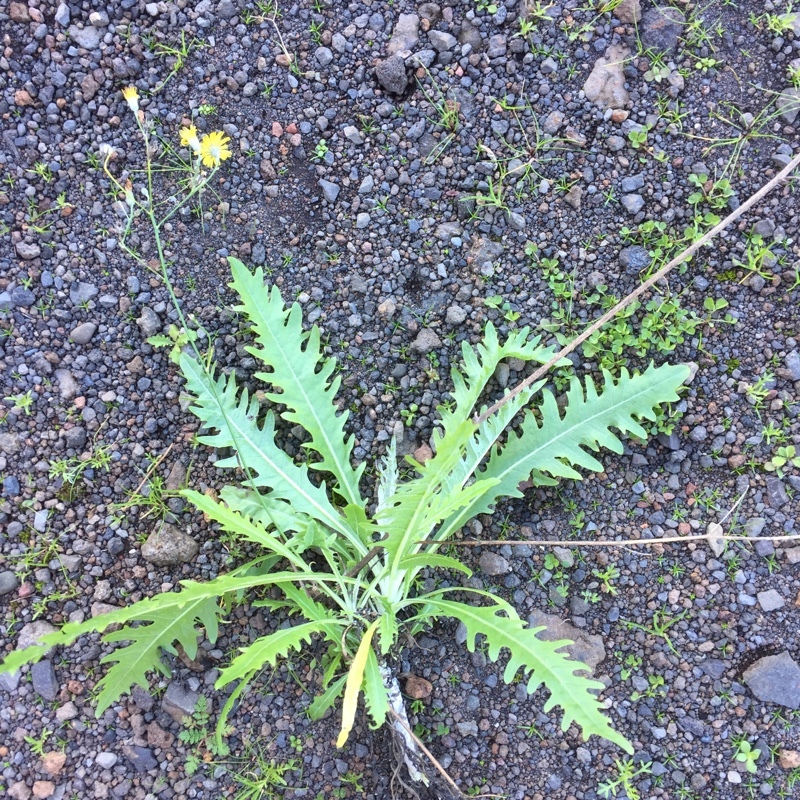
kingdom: Plantae
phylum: Tracheophyta
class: Magnoliopsida
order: Asterales
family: Asteraceae
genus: Tolpis
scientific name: Tolpis lagopoda
